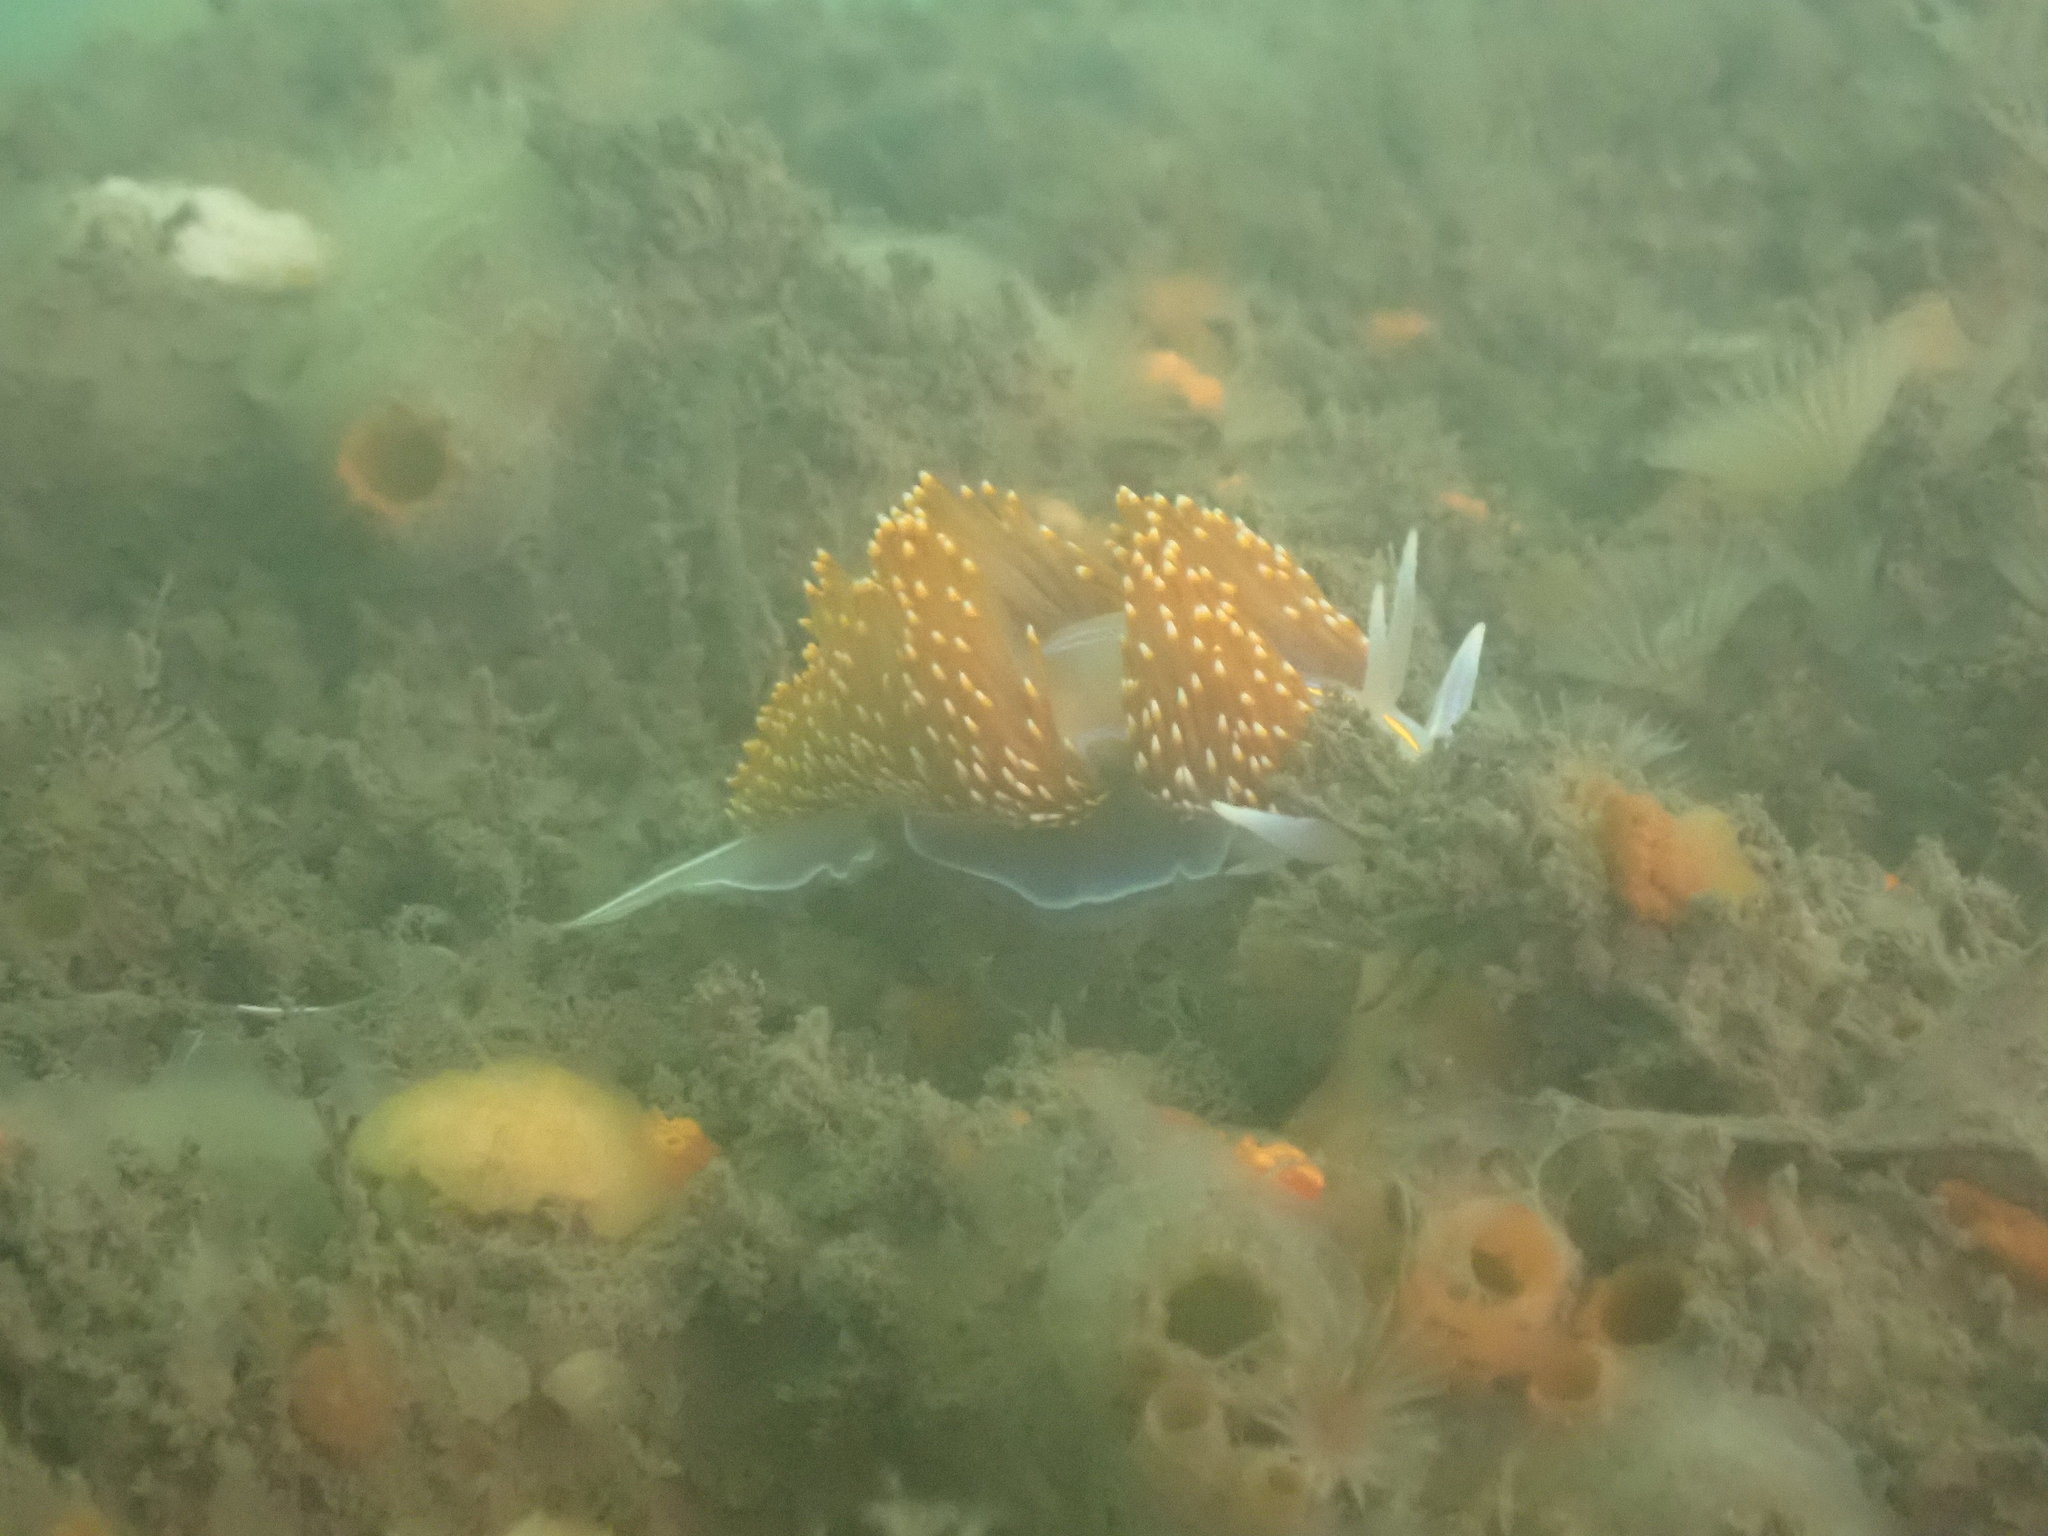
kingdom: Animalia
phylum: Mollusca
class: Gastropoda
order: Nudibranchia
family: Myrrhinidae
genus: Hermissenda
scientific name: Hermissenda opalescens
